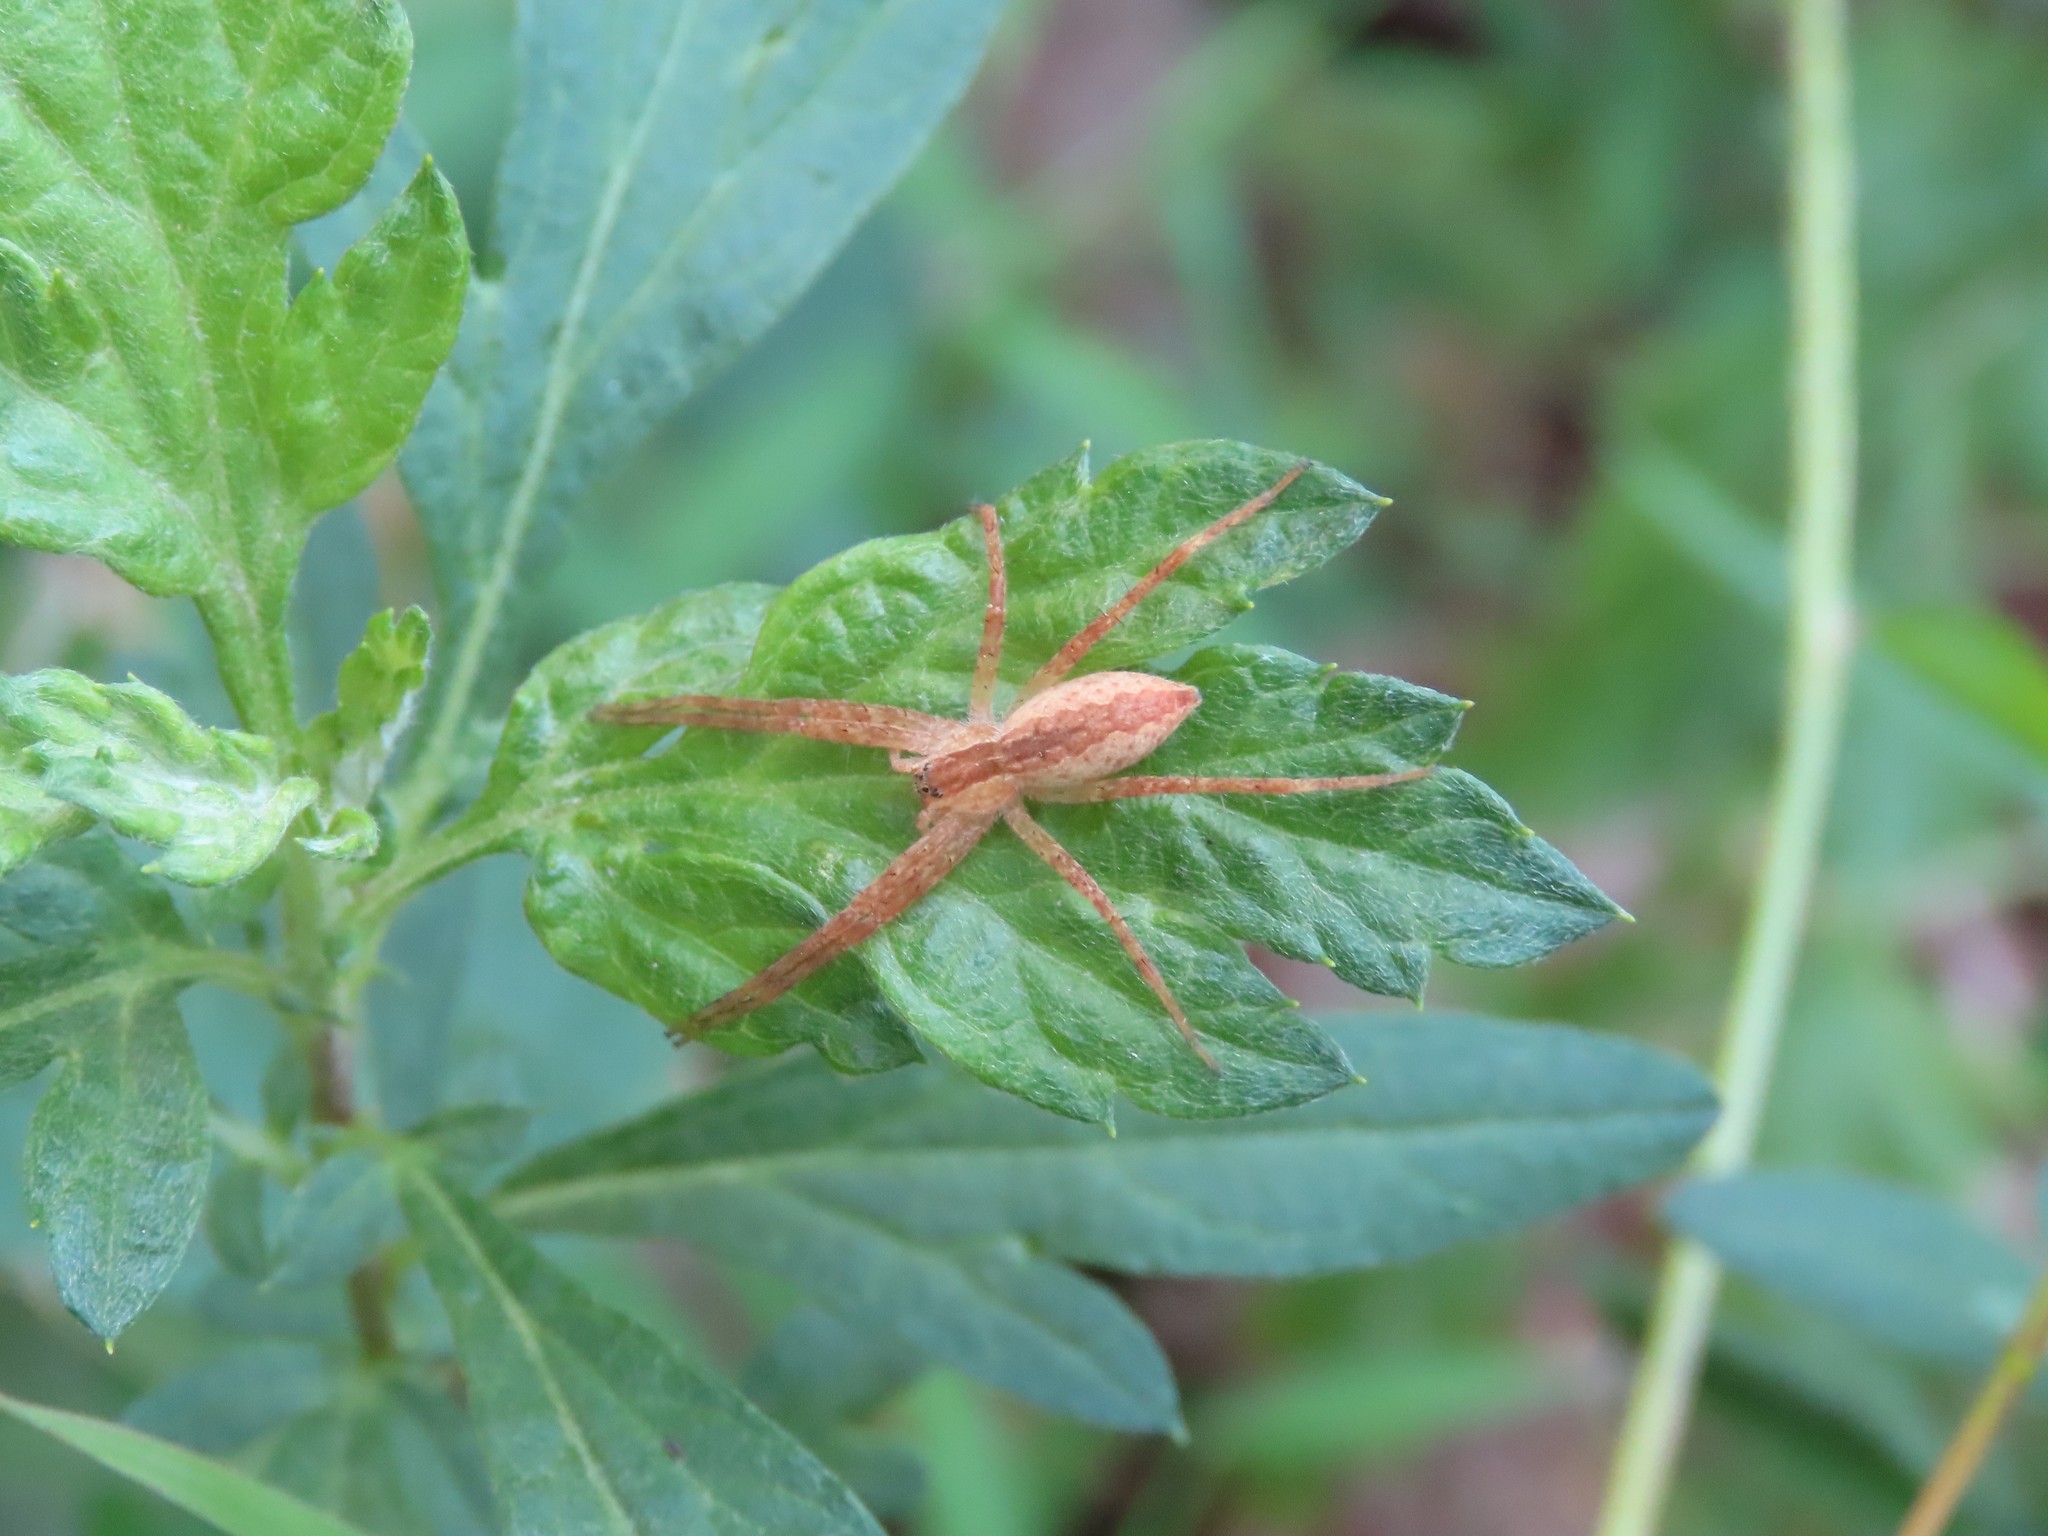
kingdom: Animalia
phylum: Arthropoda
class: Arachnida
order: Araneae
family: Pisauridae
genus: Pisaurina
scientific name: Pisaurina mira
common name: American nursery web spider
